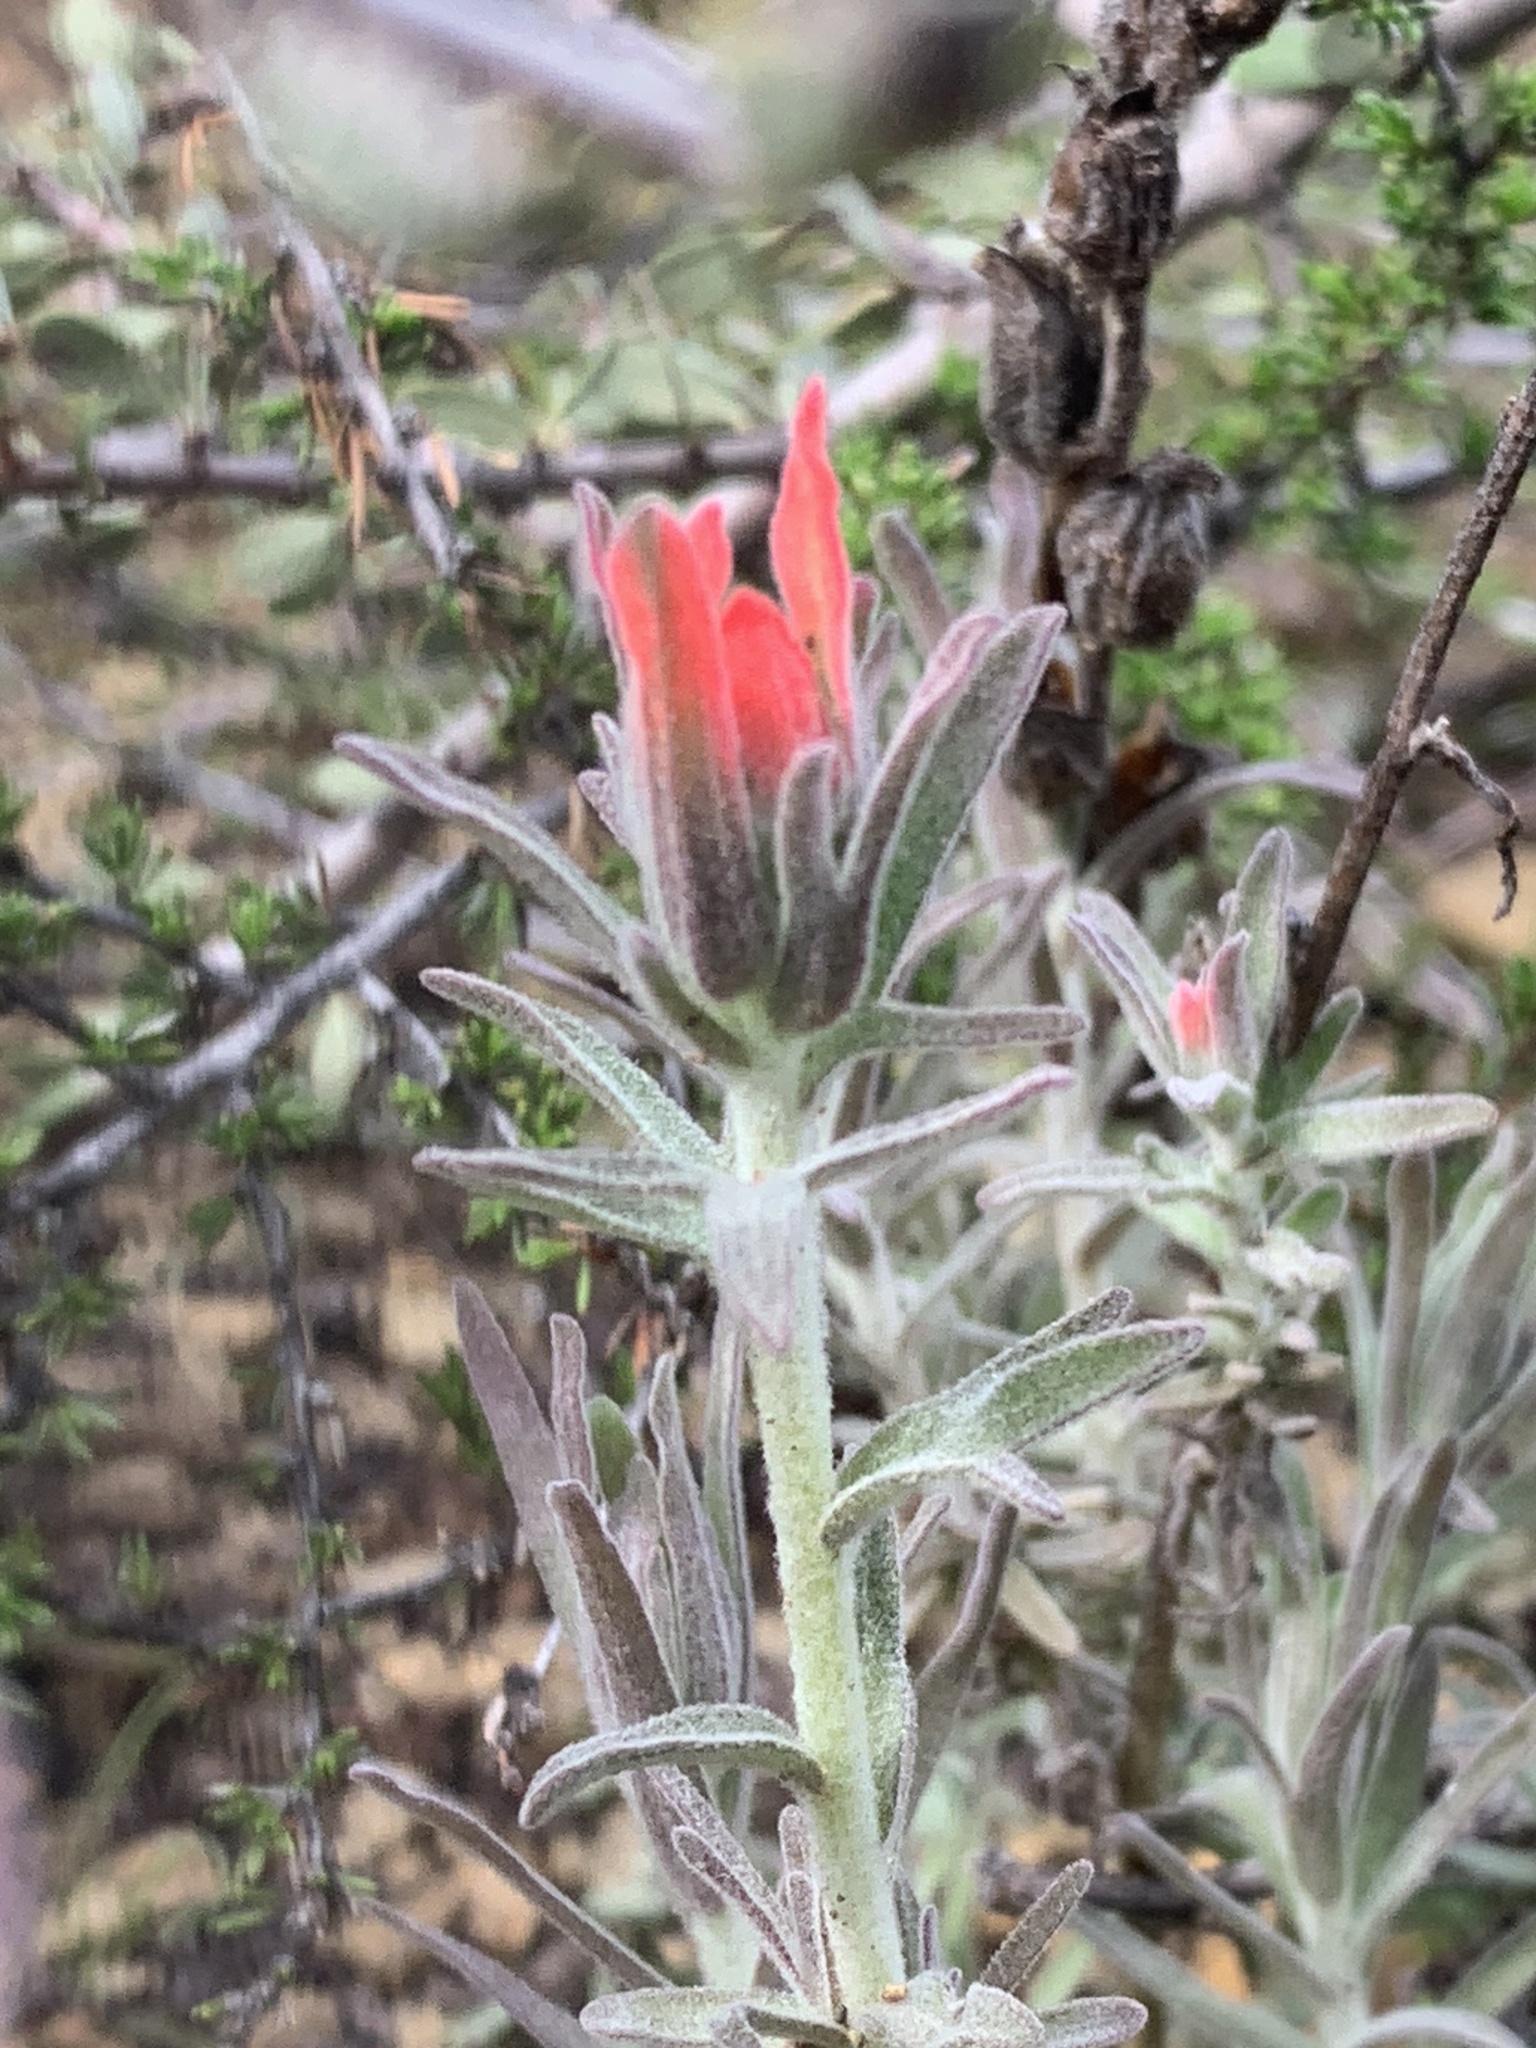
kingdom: Plantae
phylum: Tracheophyta
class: Magnoliopsida
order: Lamiales
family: Orobanchaceae
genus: Castilleja
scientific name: Castilleja foliolosa
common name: Woolly indian paintbrush
